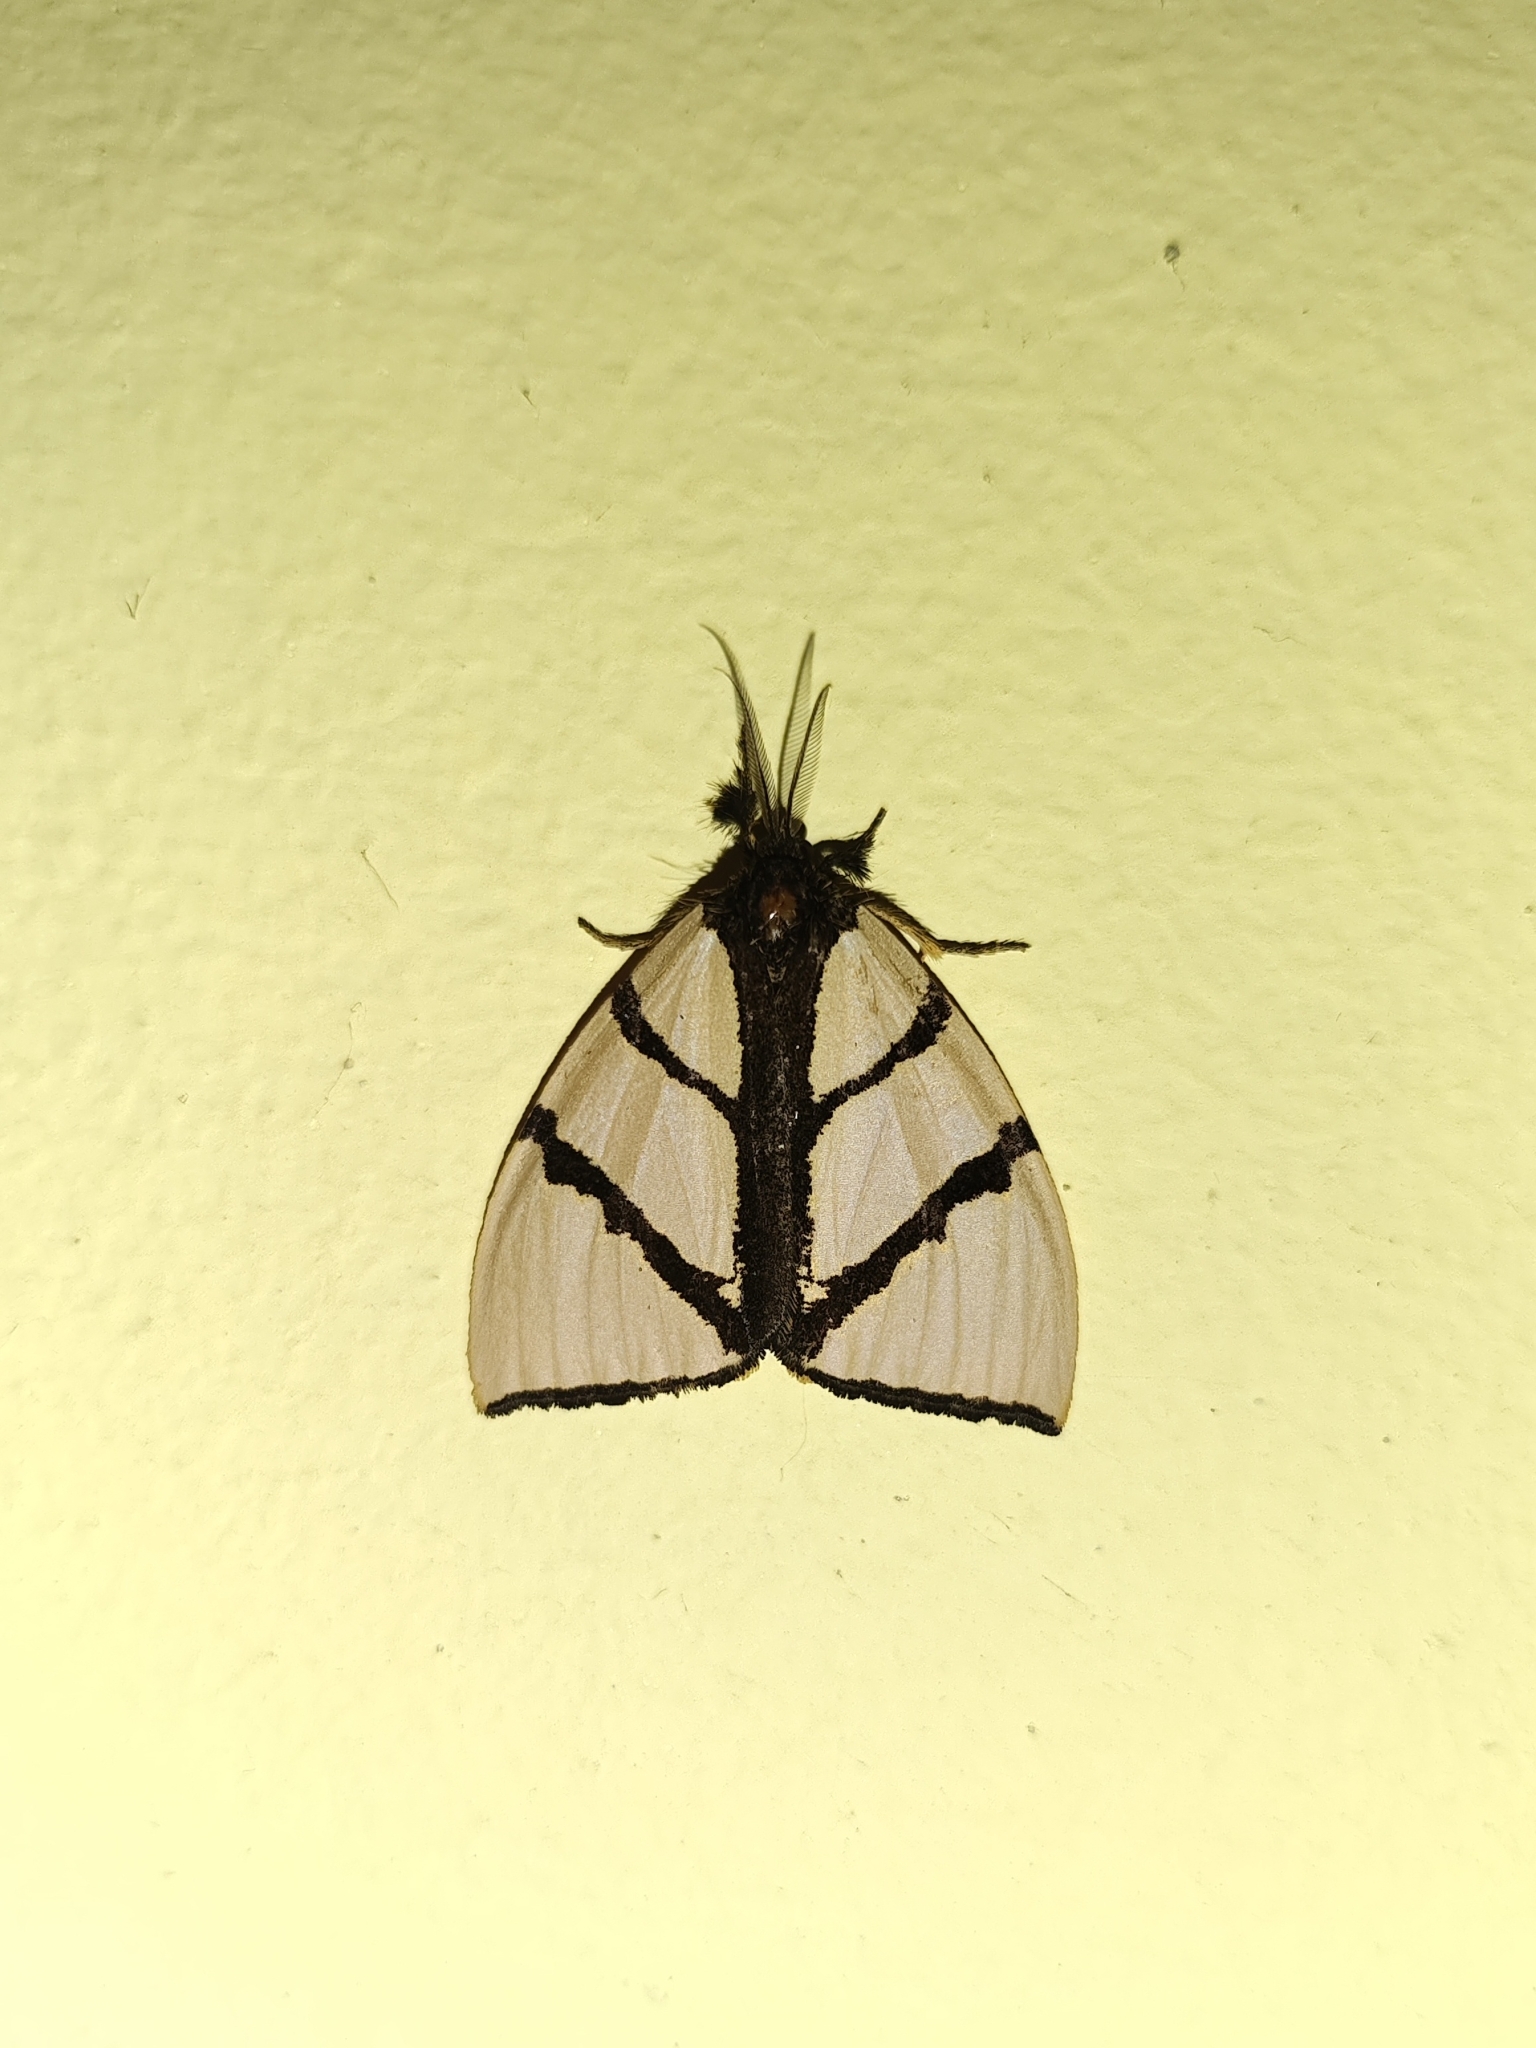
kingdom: Animalia
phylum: Arthropoda
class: Insecta
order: Lepidoptera
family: Erebidae
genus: Numenes
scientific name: Numenes siletti
